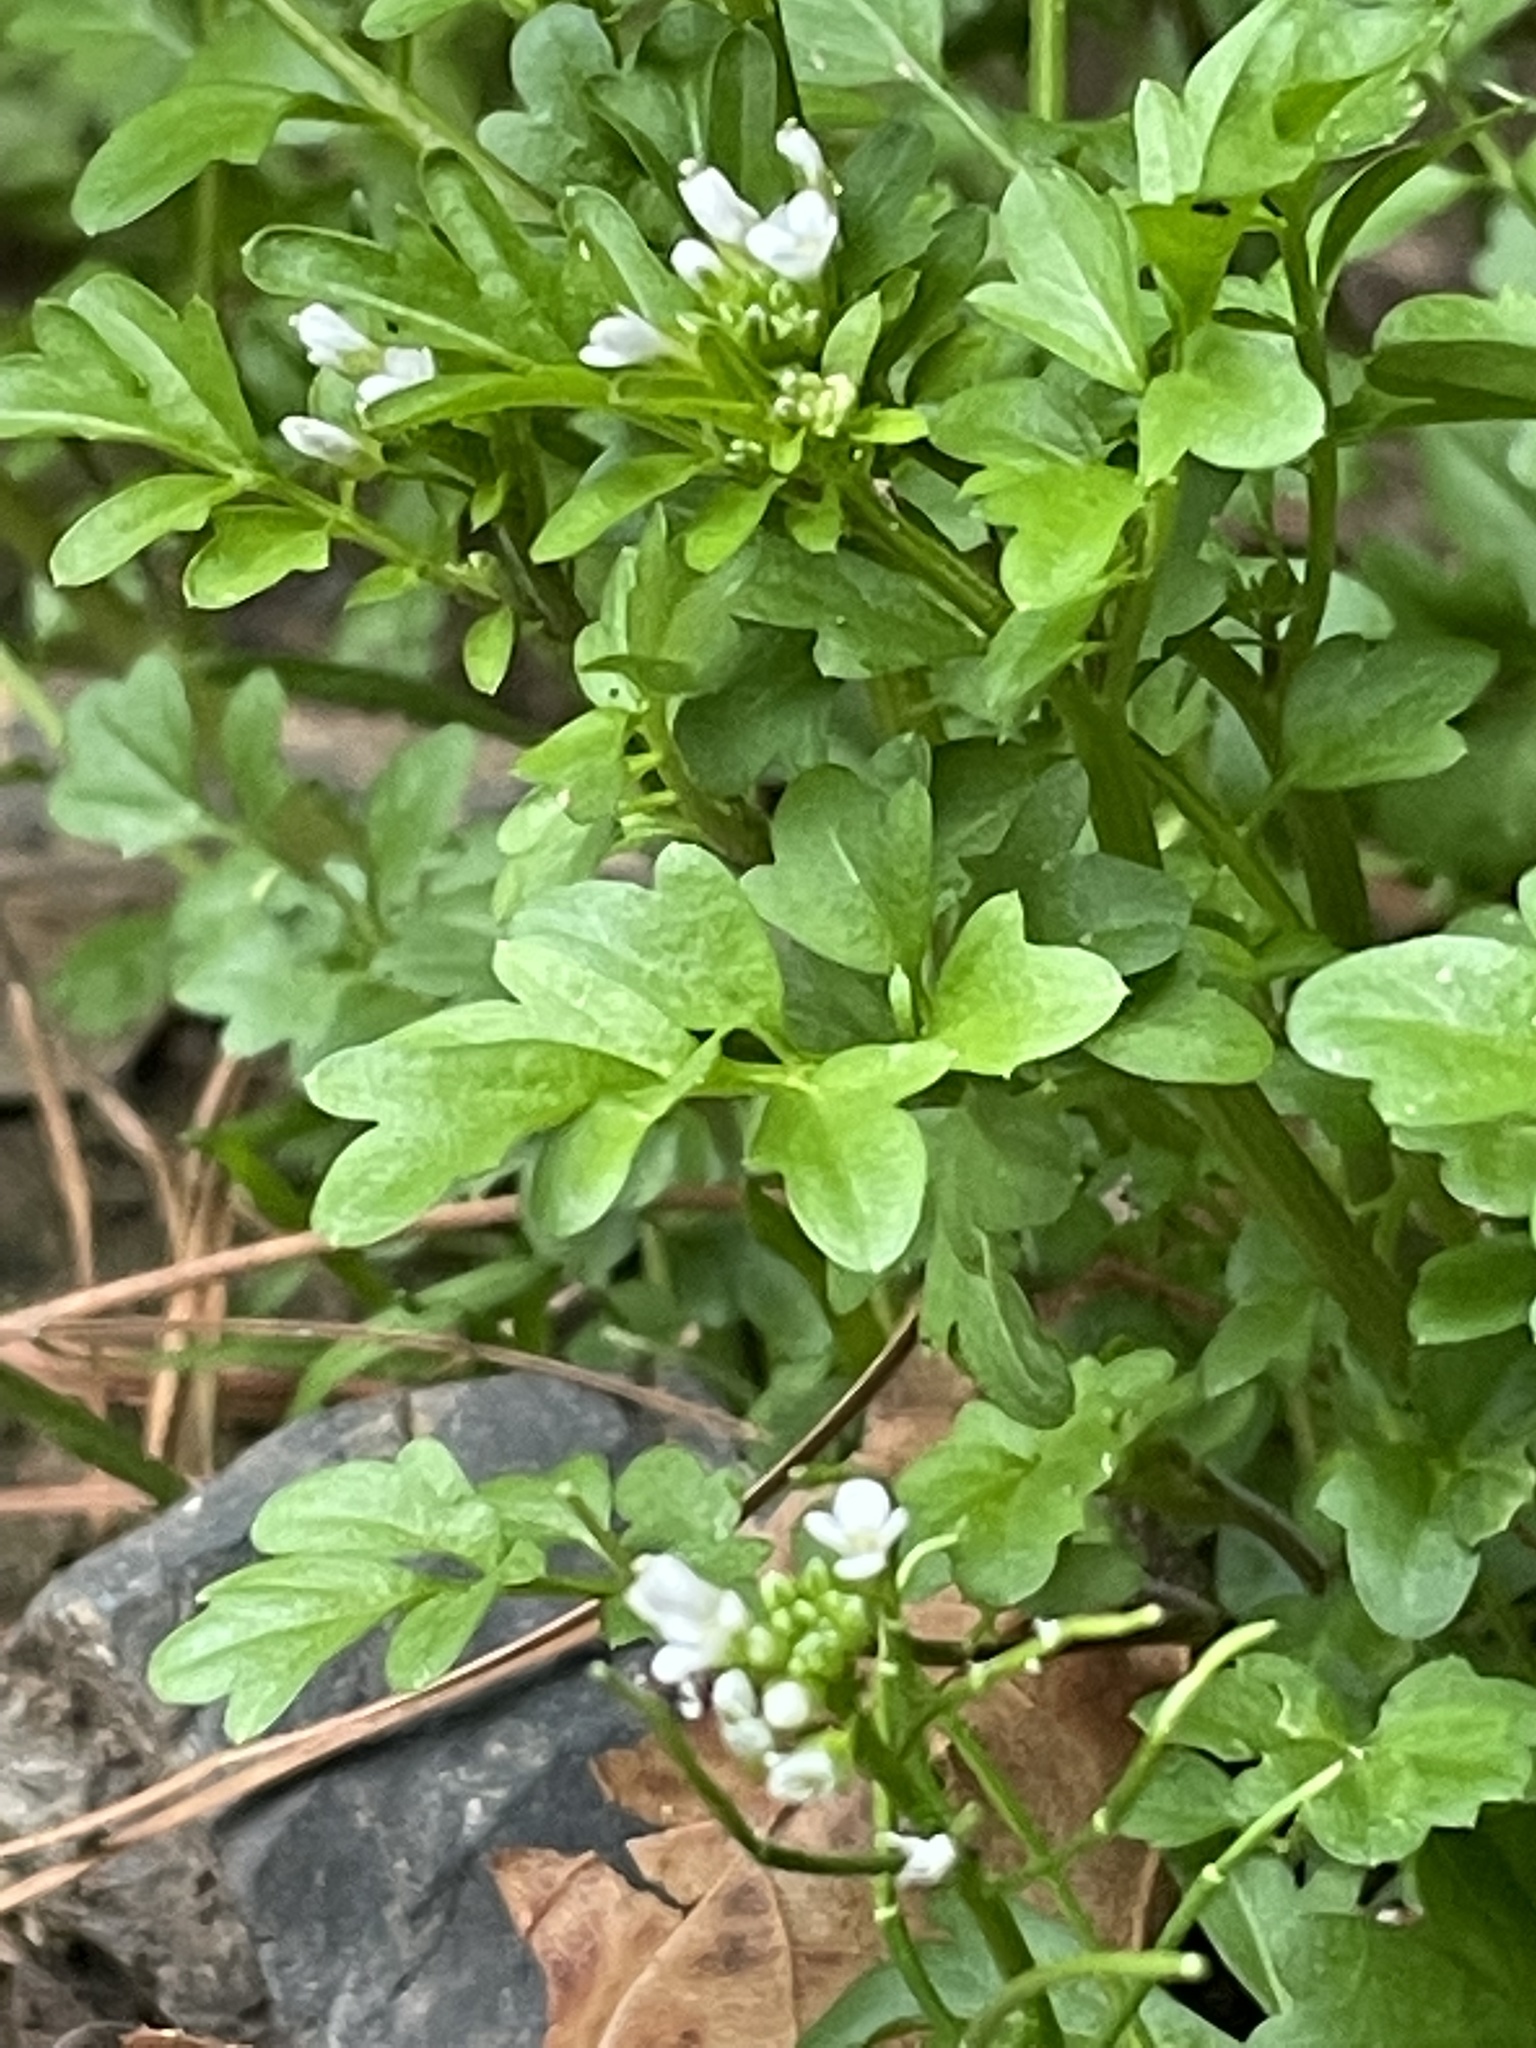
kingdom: Plantae
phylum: Tracheophyta
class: Magnoliopsida
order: Brassicales
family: Brassicaceae
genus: Cardamine
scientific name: Cardamine occulta
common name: Asian wavy bittercress
